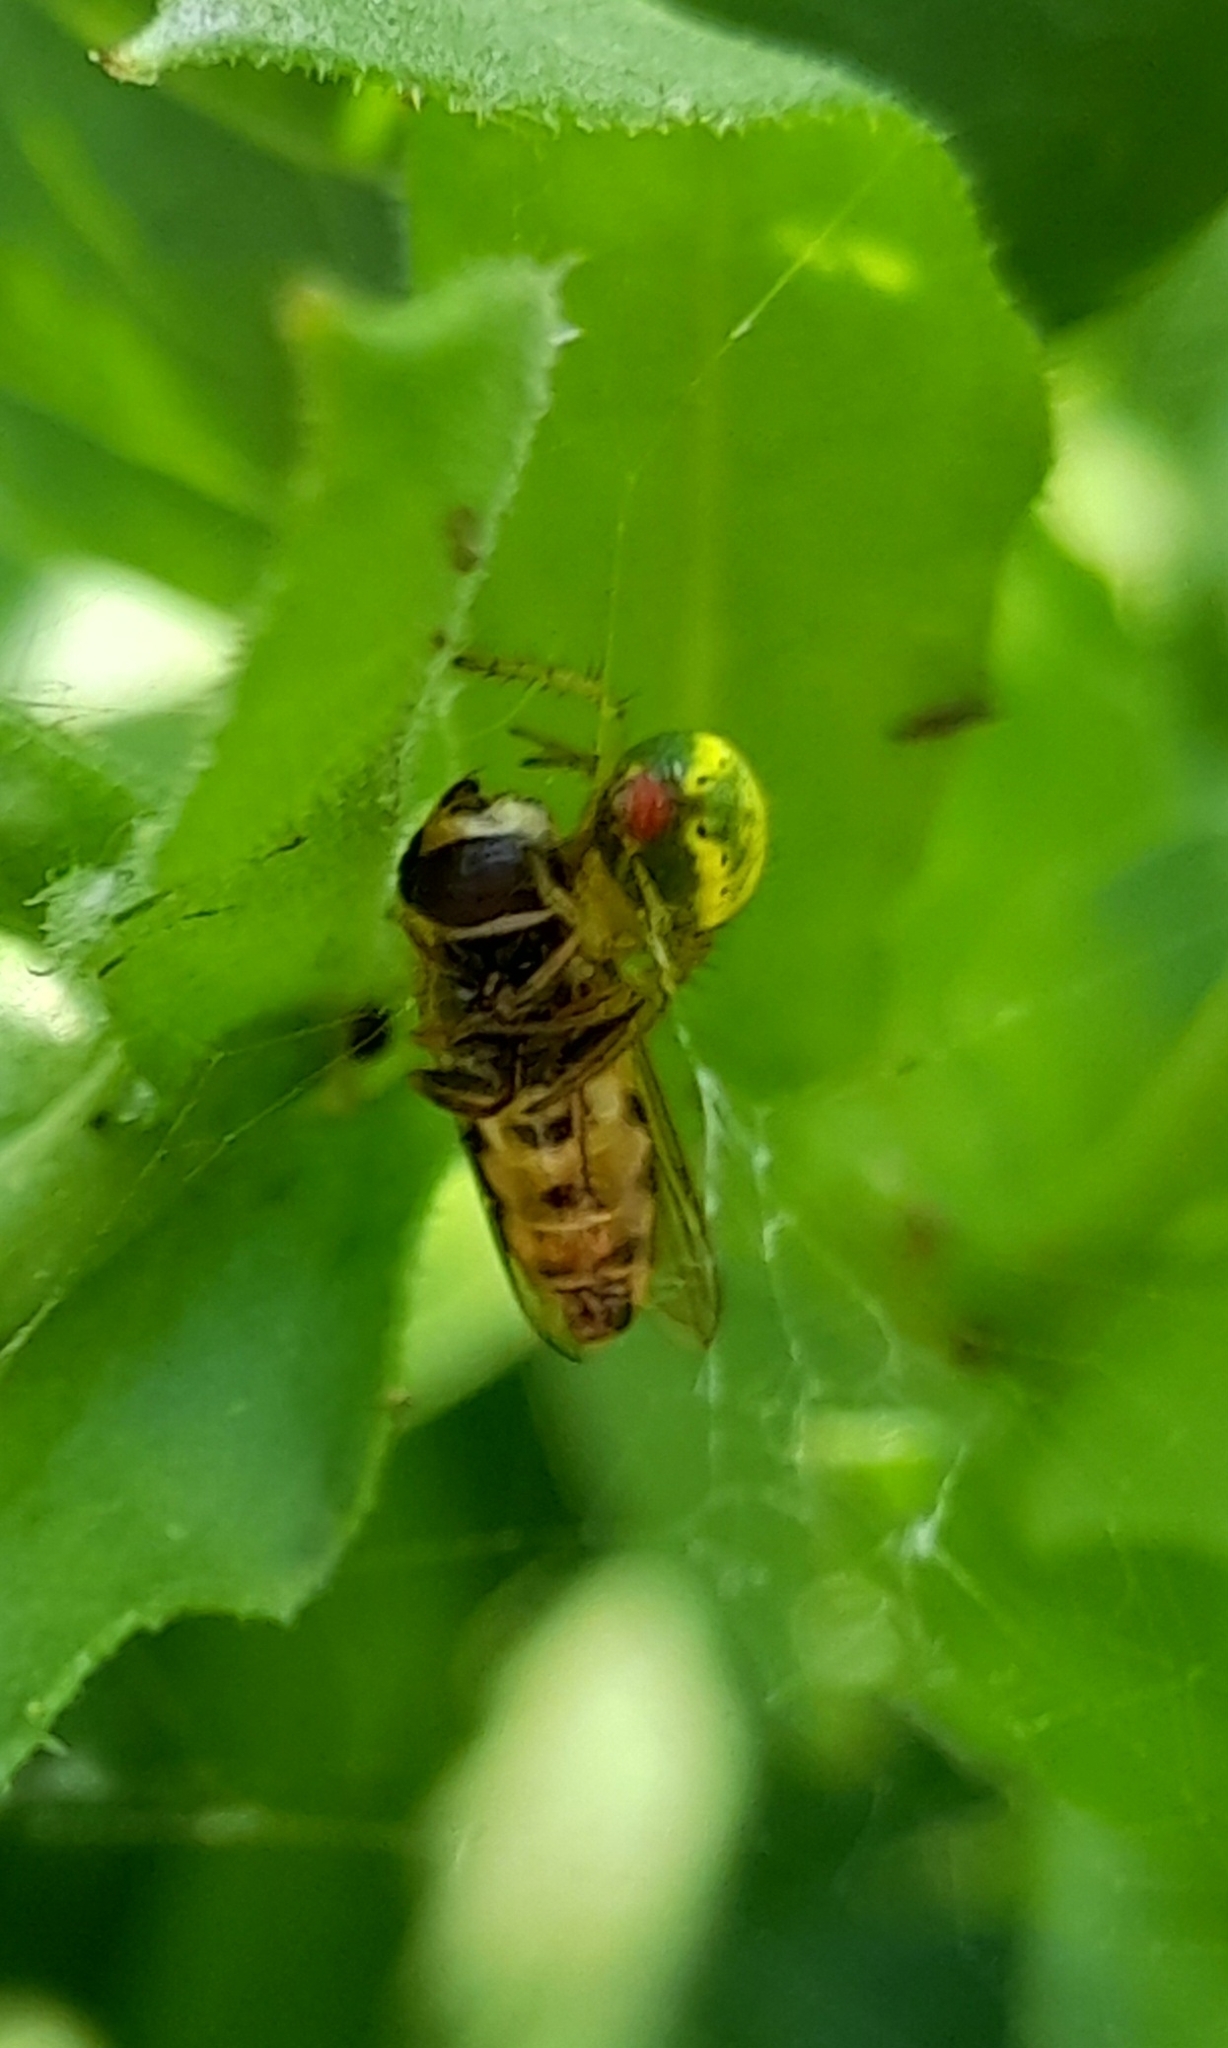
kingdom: Animalia
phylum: Arthropoda
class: Arachnida
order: Araneae
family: Araneidae
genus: Araniella
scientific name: Araniella
